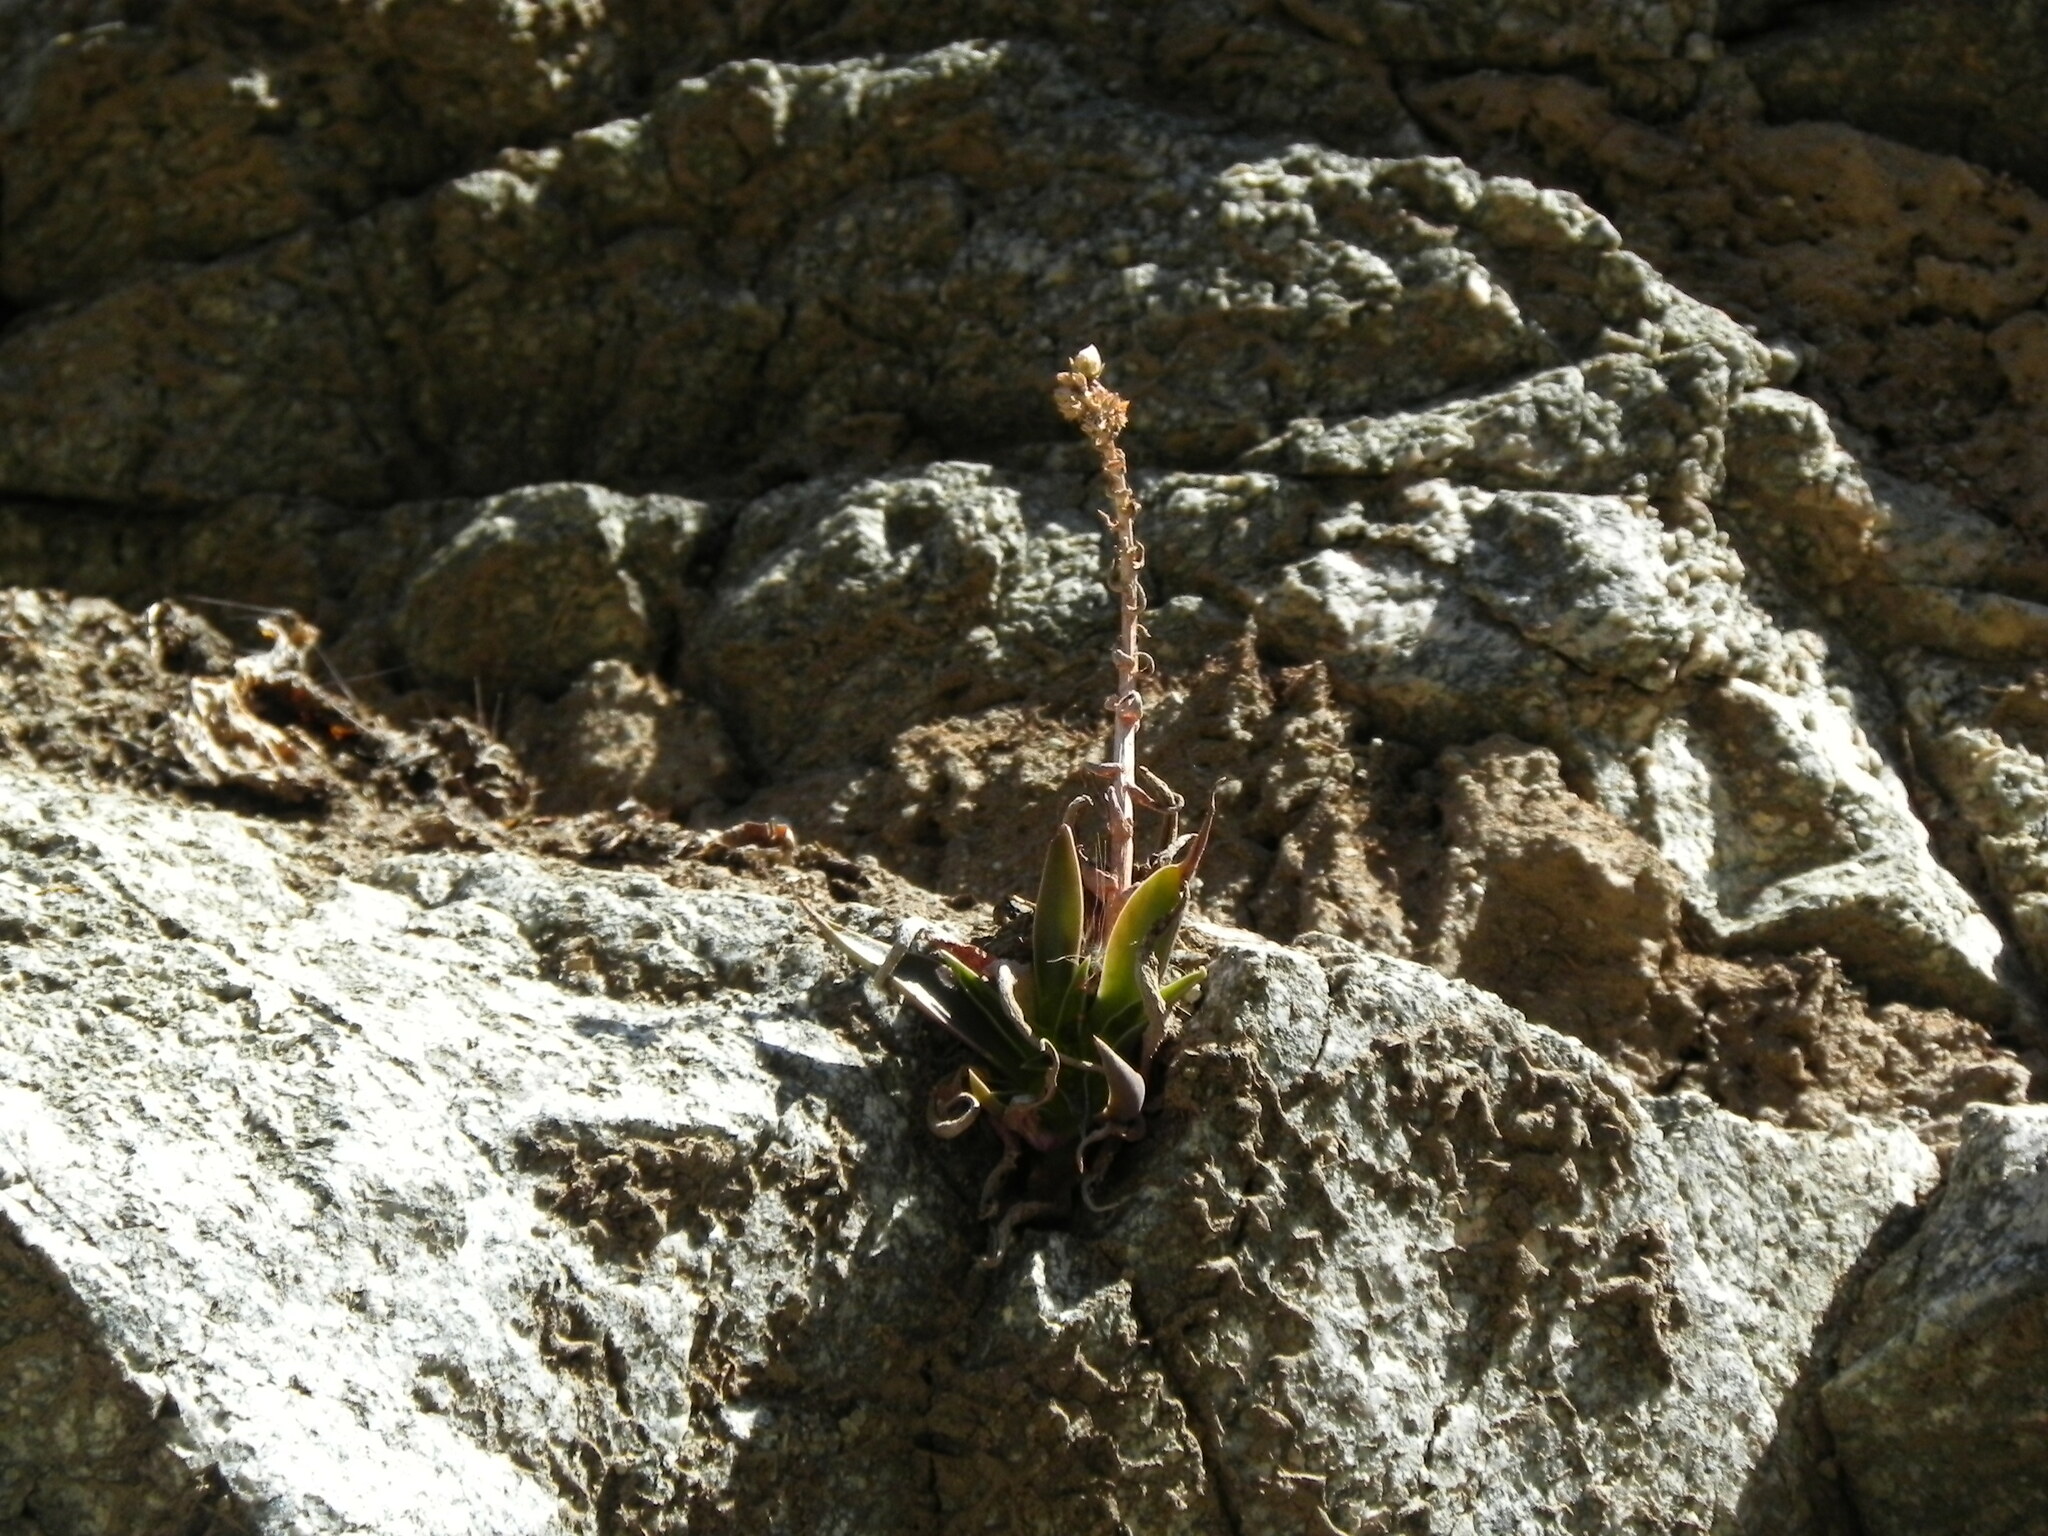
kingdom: Plantae
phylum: Tracheophyta
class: Magnoliopsida
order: Saxifragales
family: Crassulaceae
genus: Dudleya
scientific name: Dudleya lanceolata
